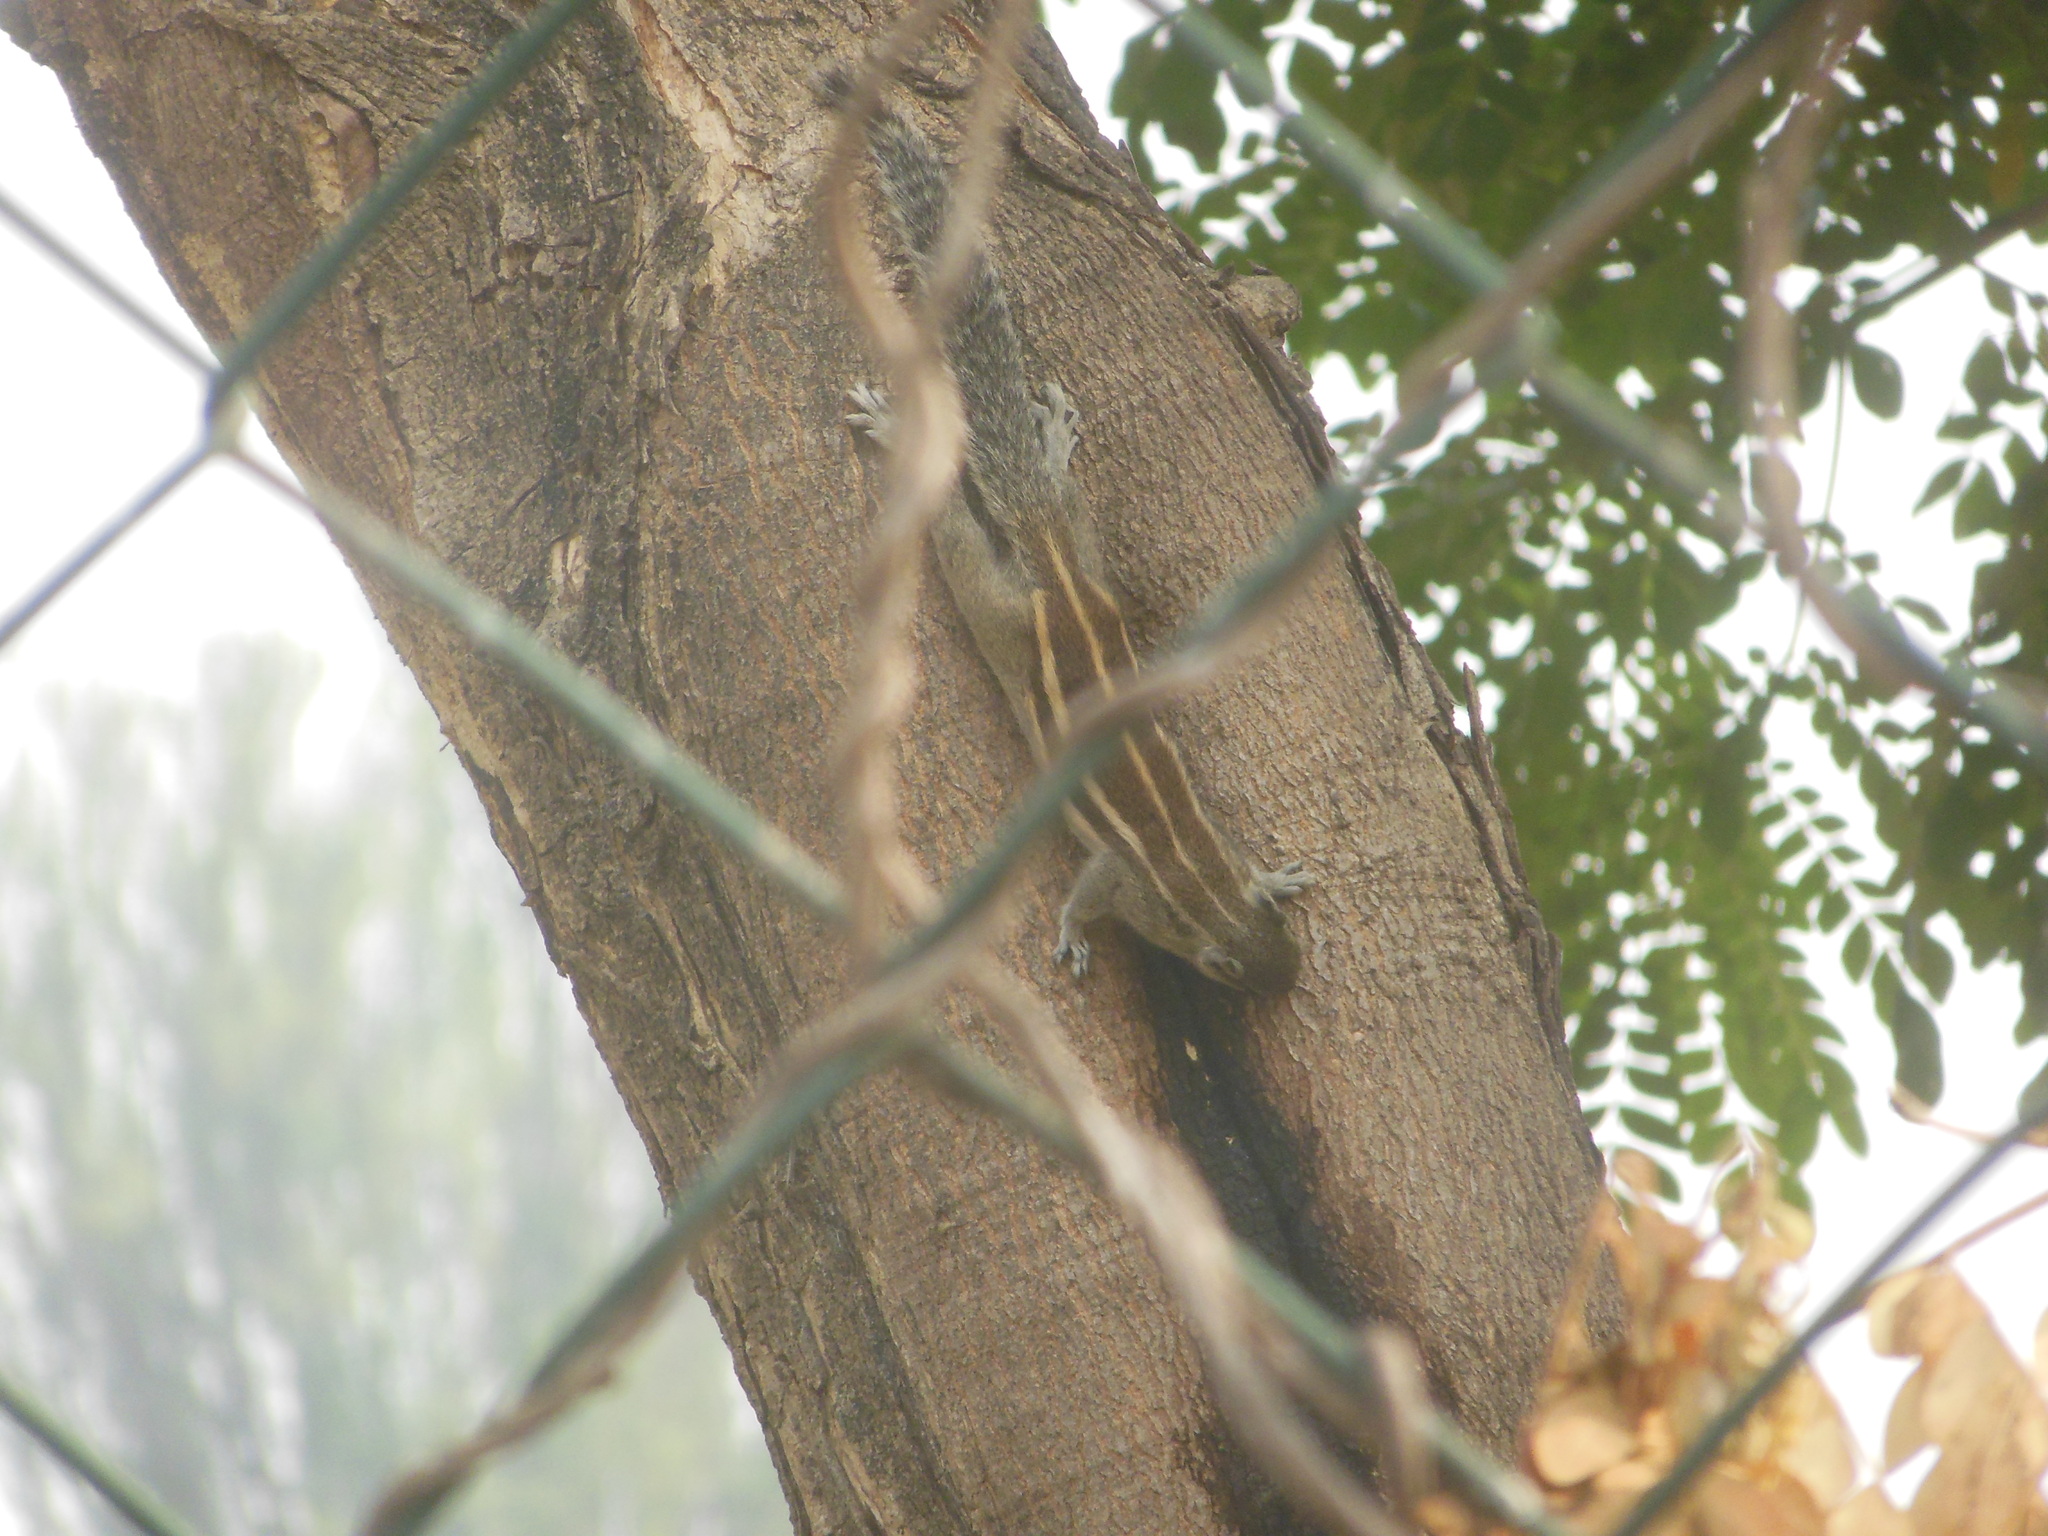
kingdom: Animalia
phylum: Chordata
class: Mammalia
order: Rodentia
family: Sciuridae
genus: Funambulus
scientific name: Funambulus pennantii
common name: Northern palm squirrel
